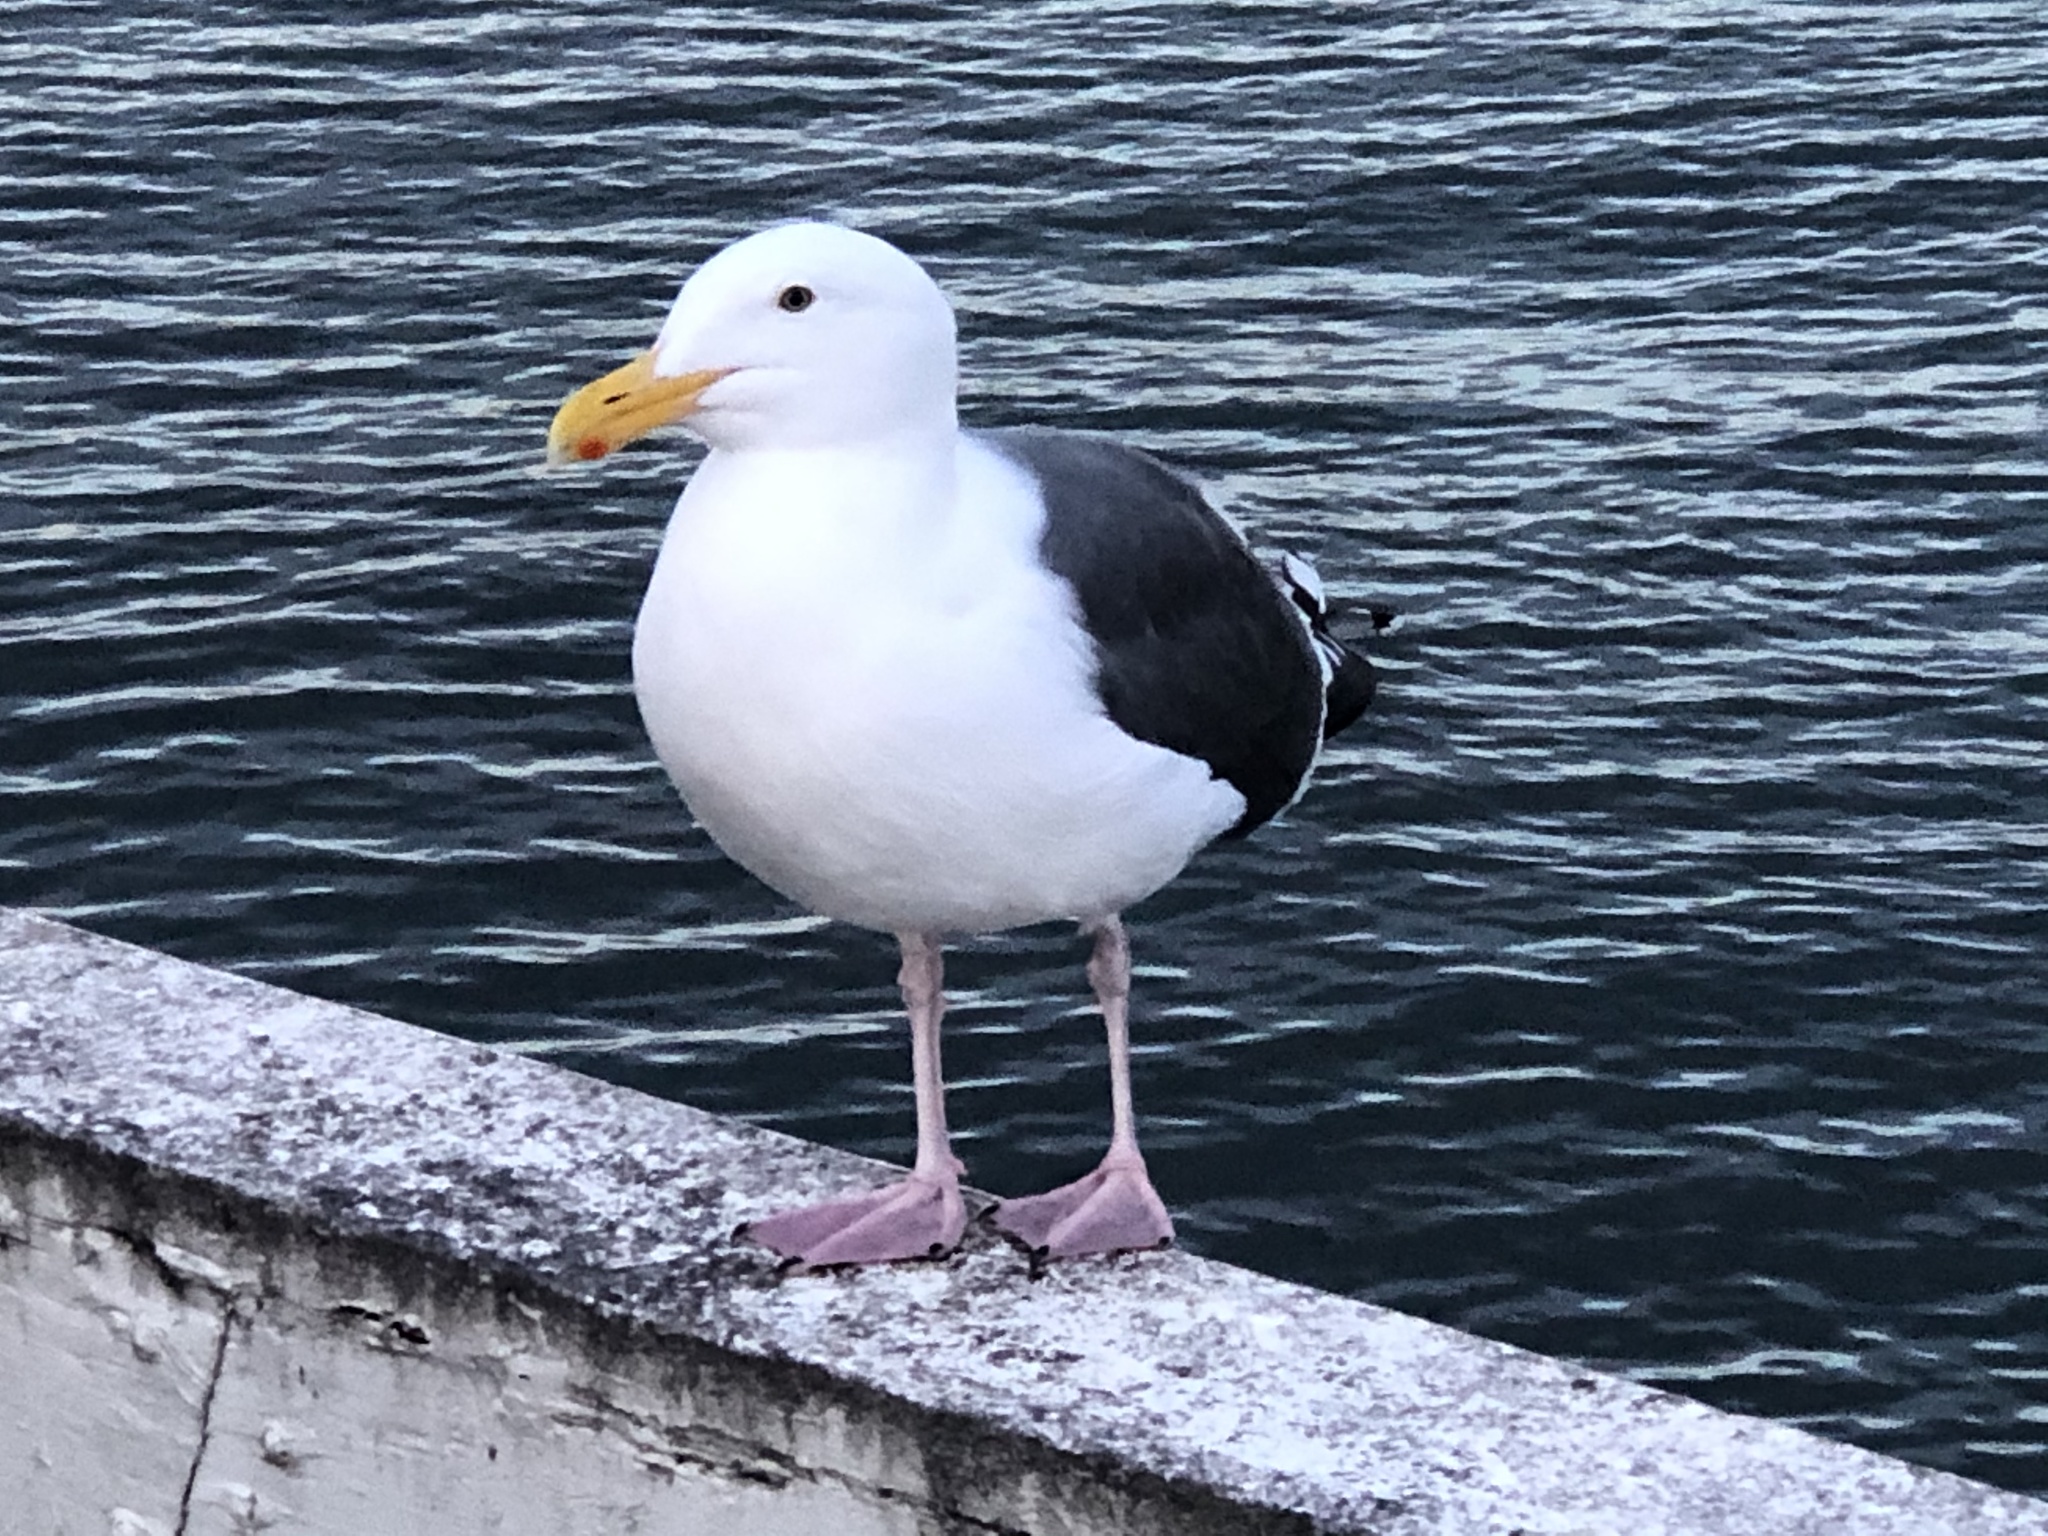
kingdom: Animalia
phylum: Chordata
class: Aves
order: Charadriiformes
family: Laridae
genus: Larus
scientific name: Larus occidentalis
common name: Western gull
